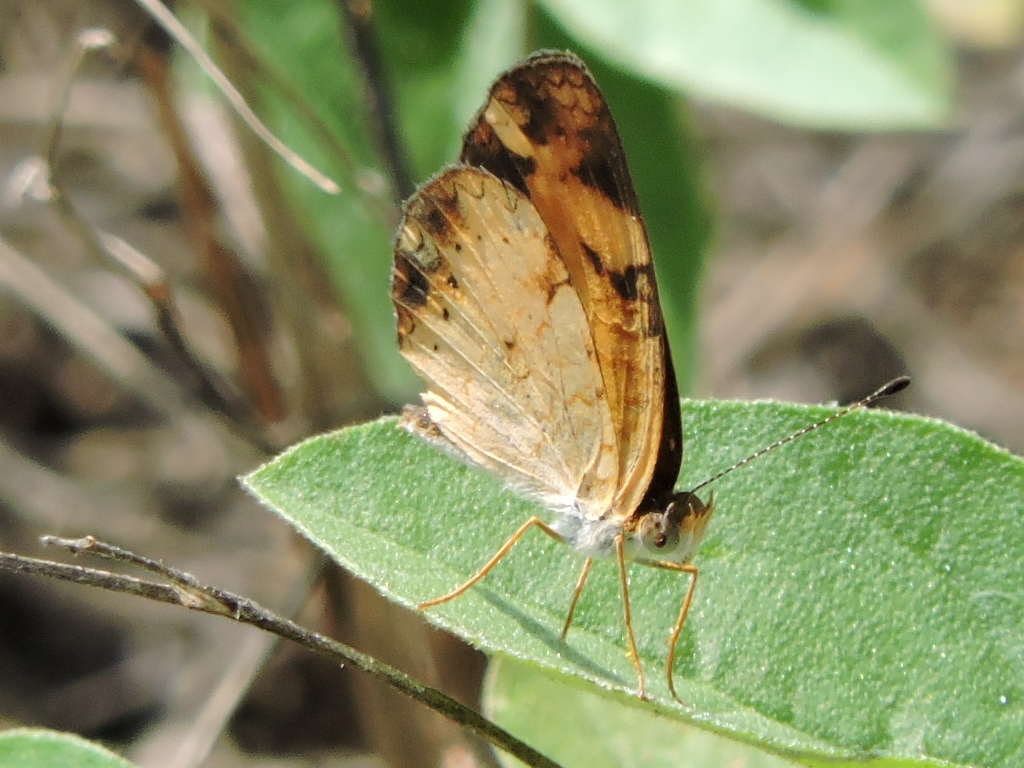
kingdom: Animalia
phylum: Arthropoda
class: Insecta
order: Lepidoptera
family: Nymphalidae
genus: Phyciodes
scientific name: Phyciodes tharos
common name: Pearl crescent
